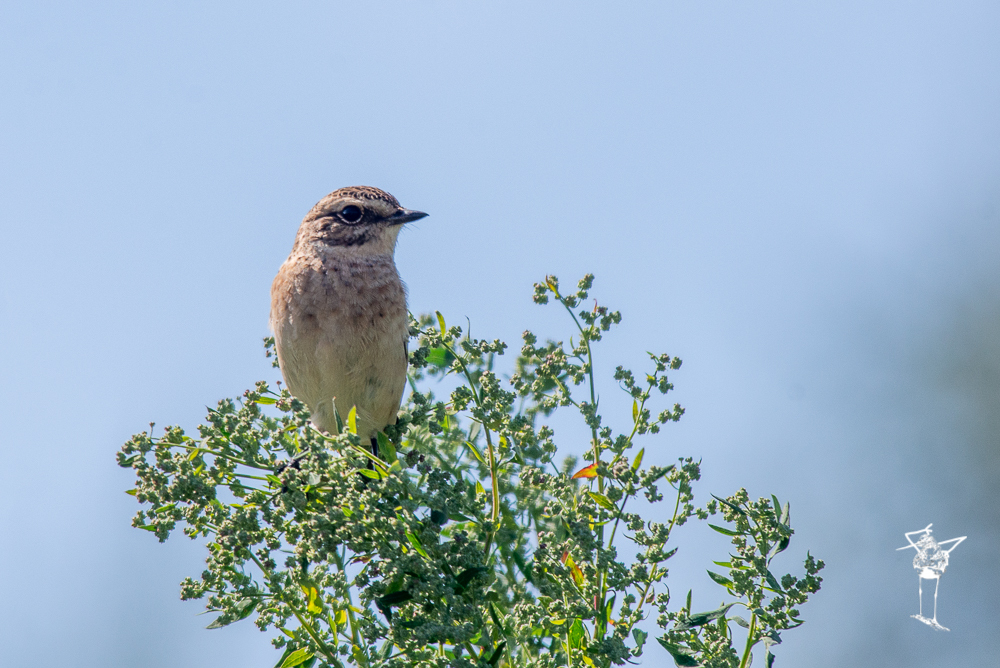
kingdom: Animalia
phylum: Chordata
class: Aves
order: Passeriformes
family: Muscicapidae
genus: Saxicola
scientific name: Saxicola rubetra
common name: Whinchat
